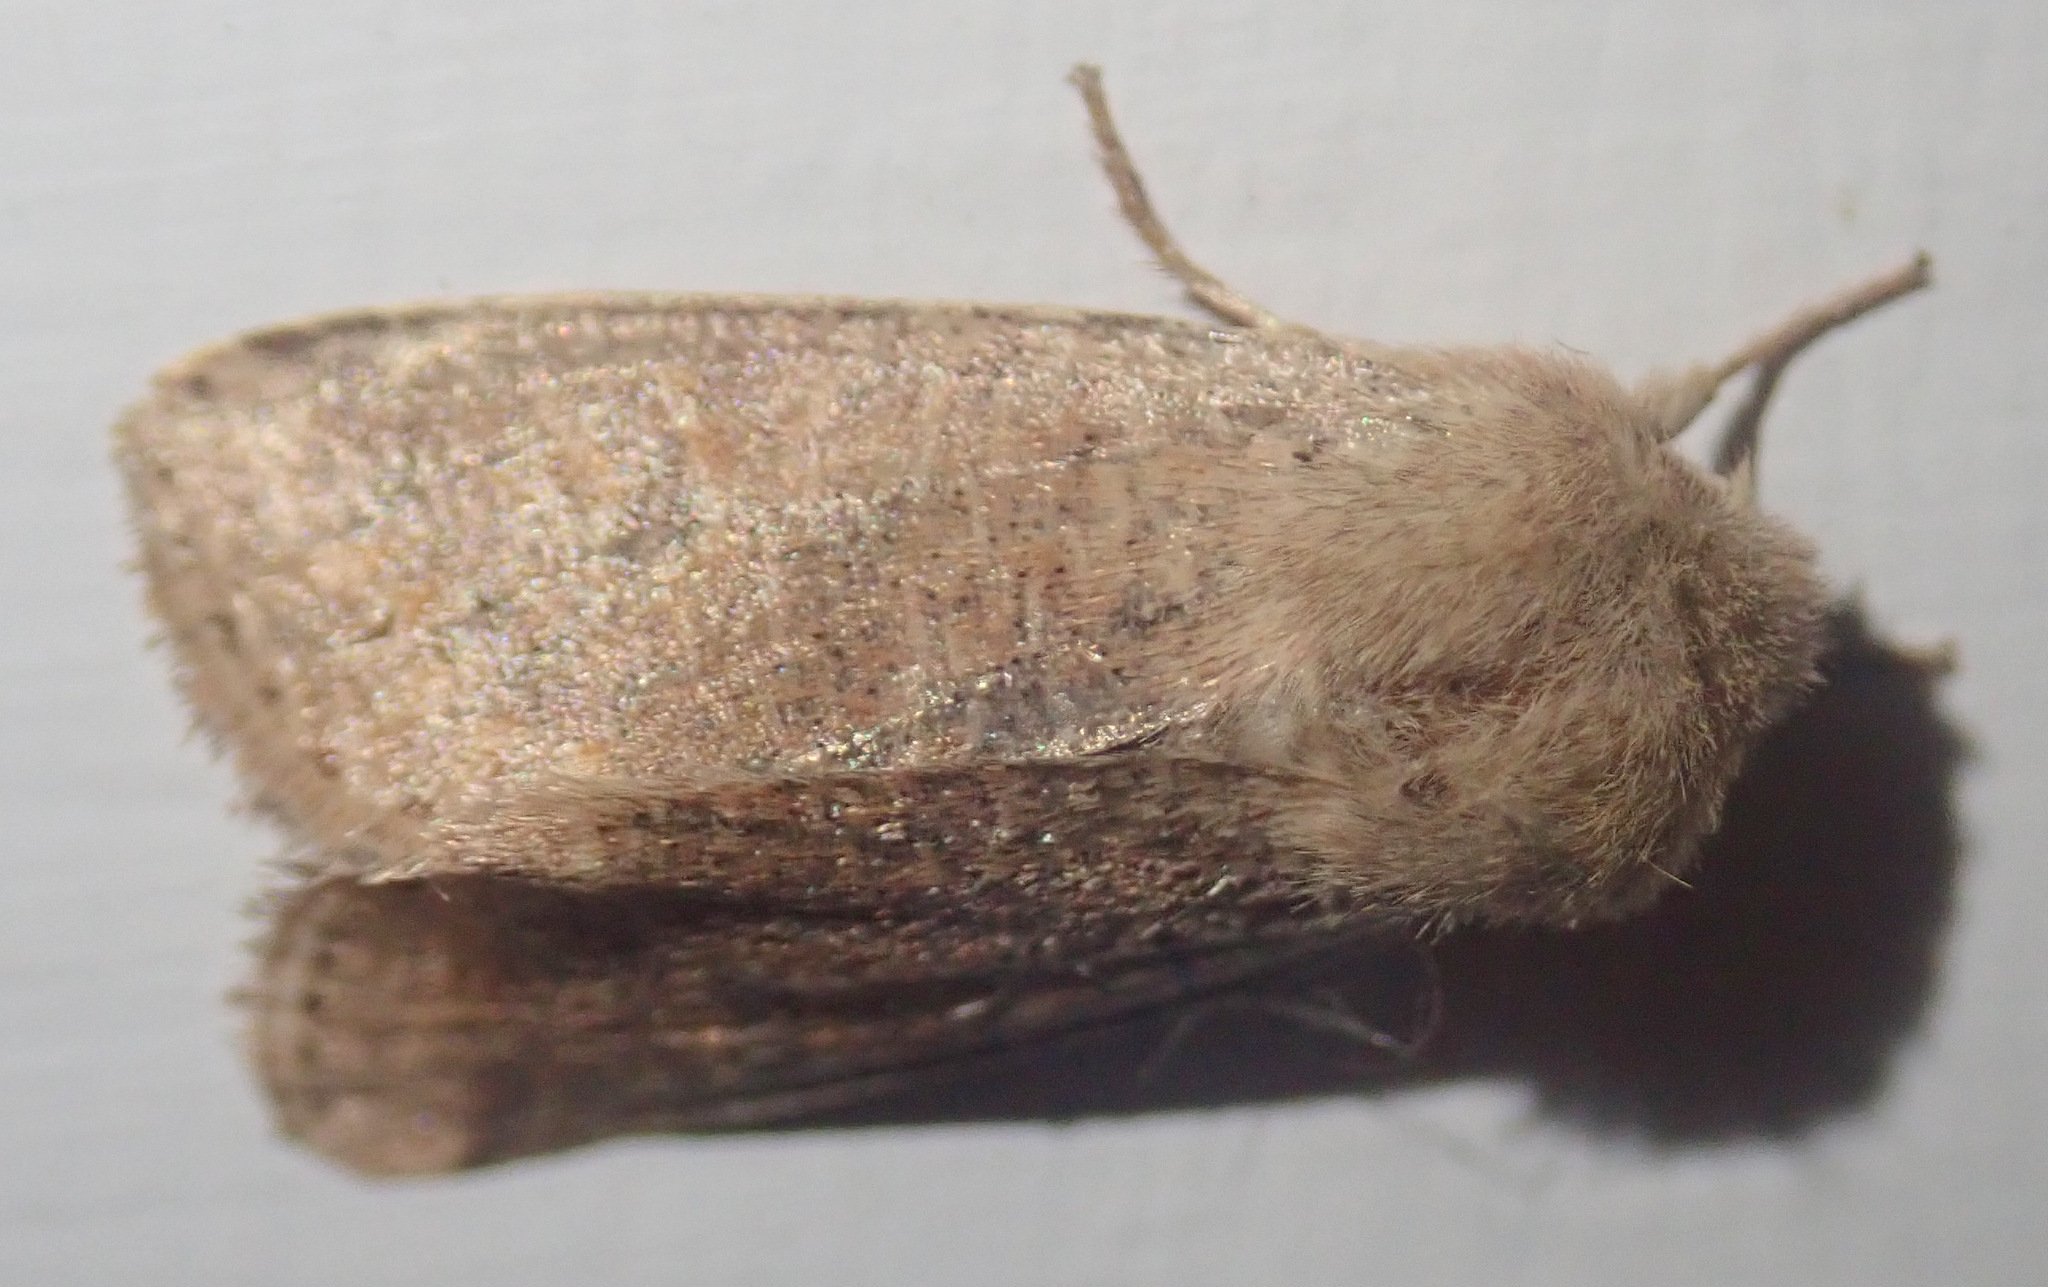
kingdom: Animalia
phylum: Arthropoda
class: Insecta
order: Lepidoptera
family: Noctuidae
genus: Orthosia
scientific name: Orthosia cruda
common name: Small quaker
